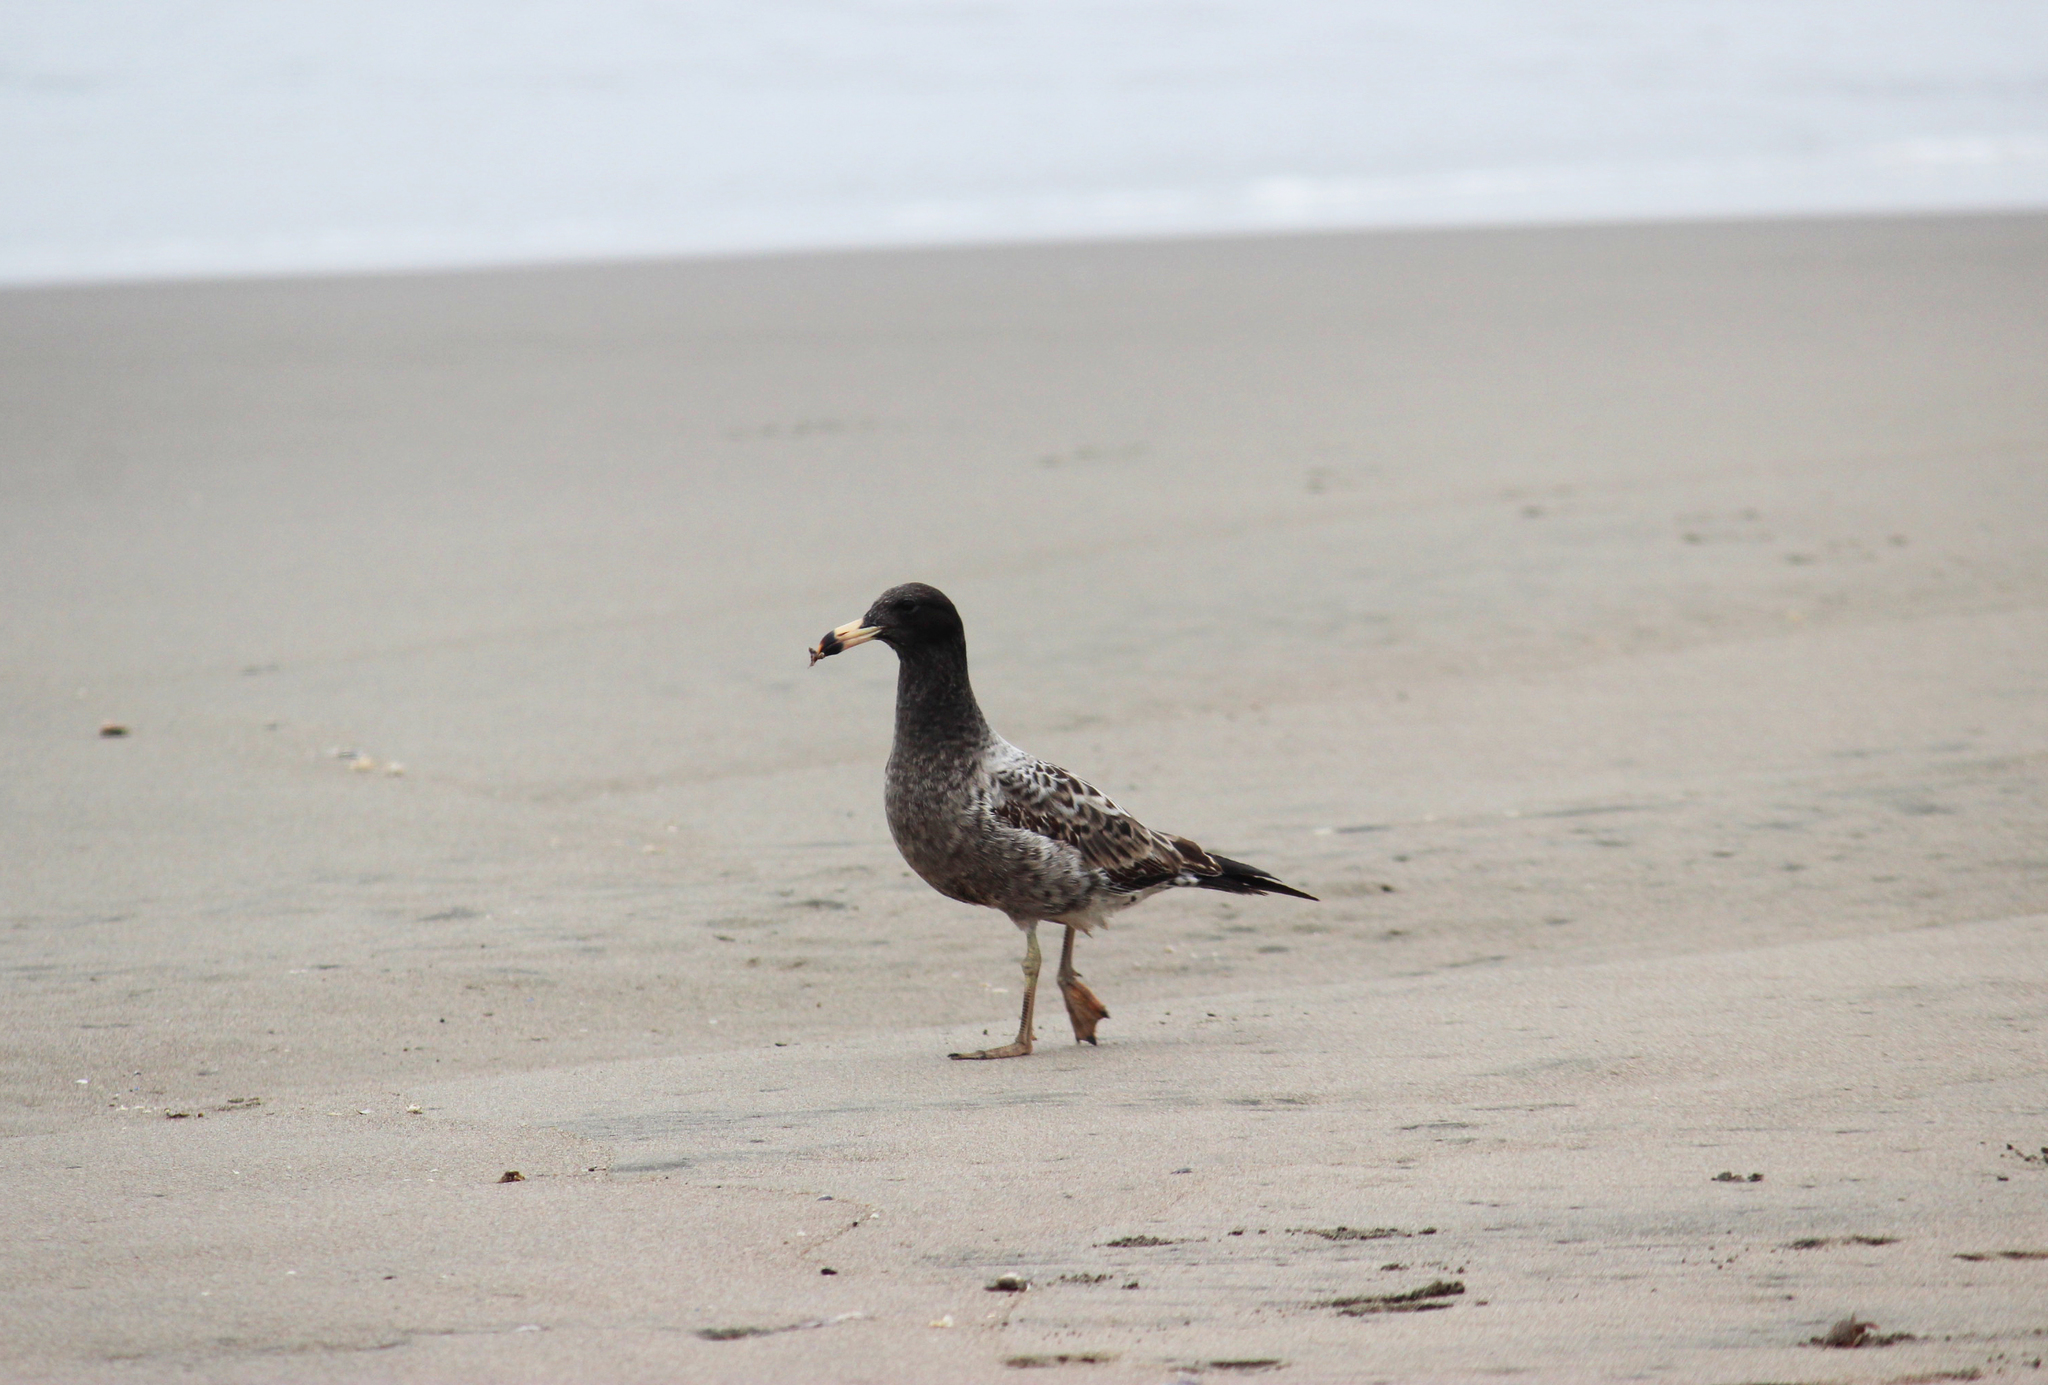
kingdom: Animalia
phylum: Chordata
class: Aves
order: Charadriiformes
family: Laridae
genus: Larus
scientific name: Larus belcheri
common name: Belcher's gull
